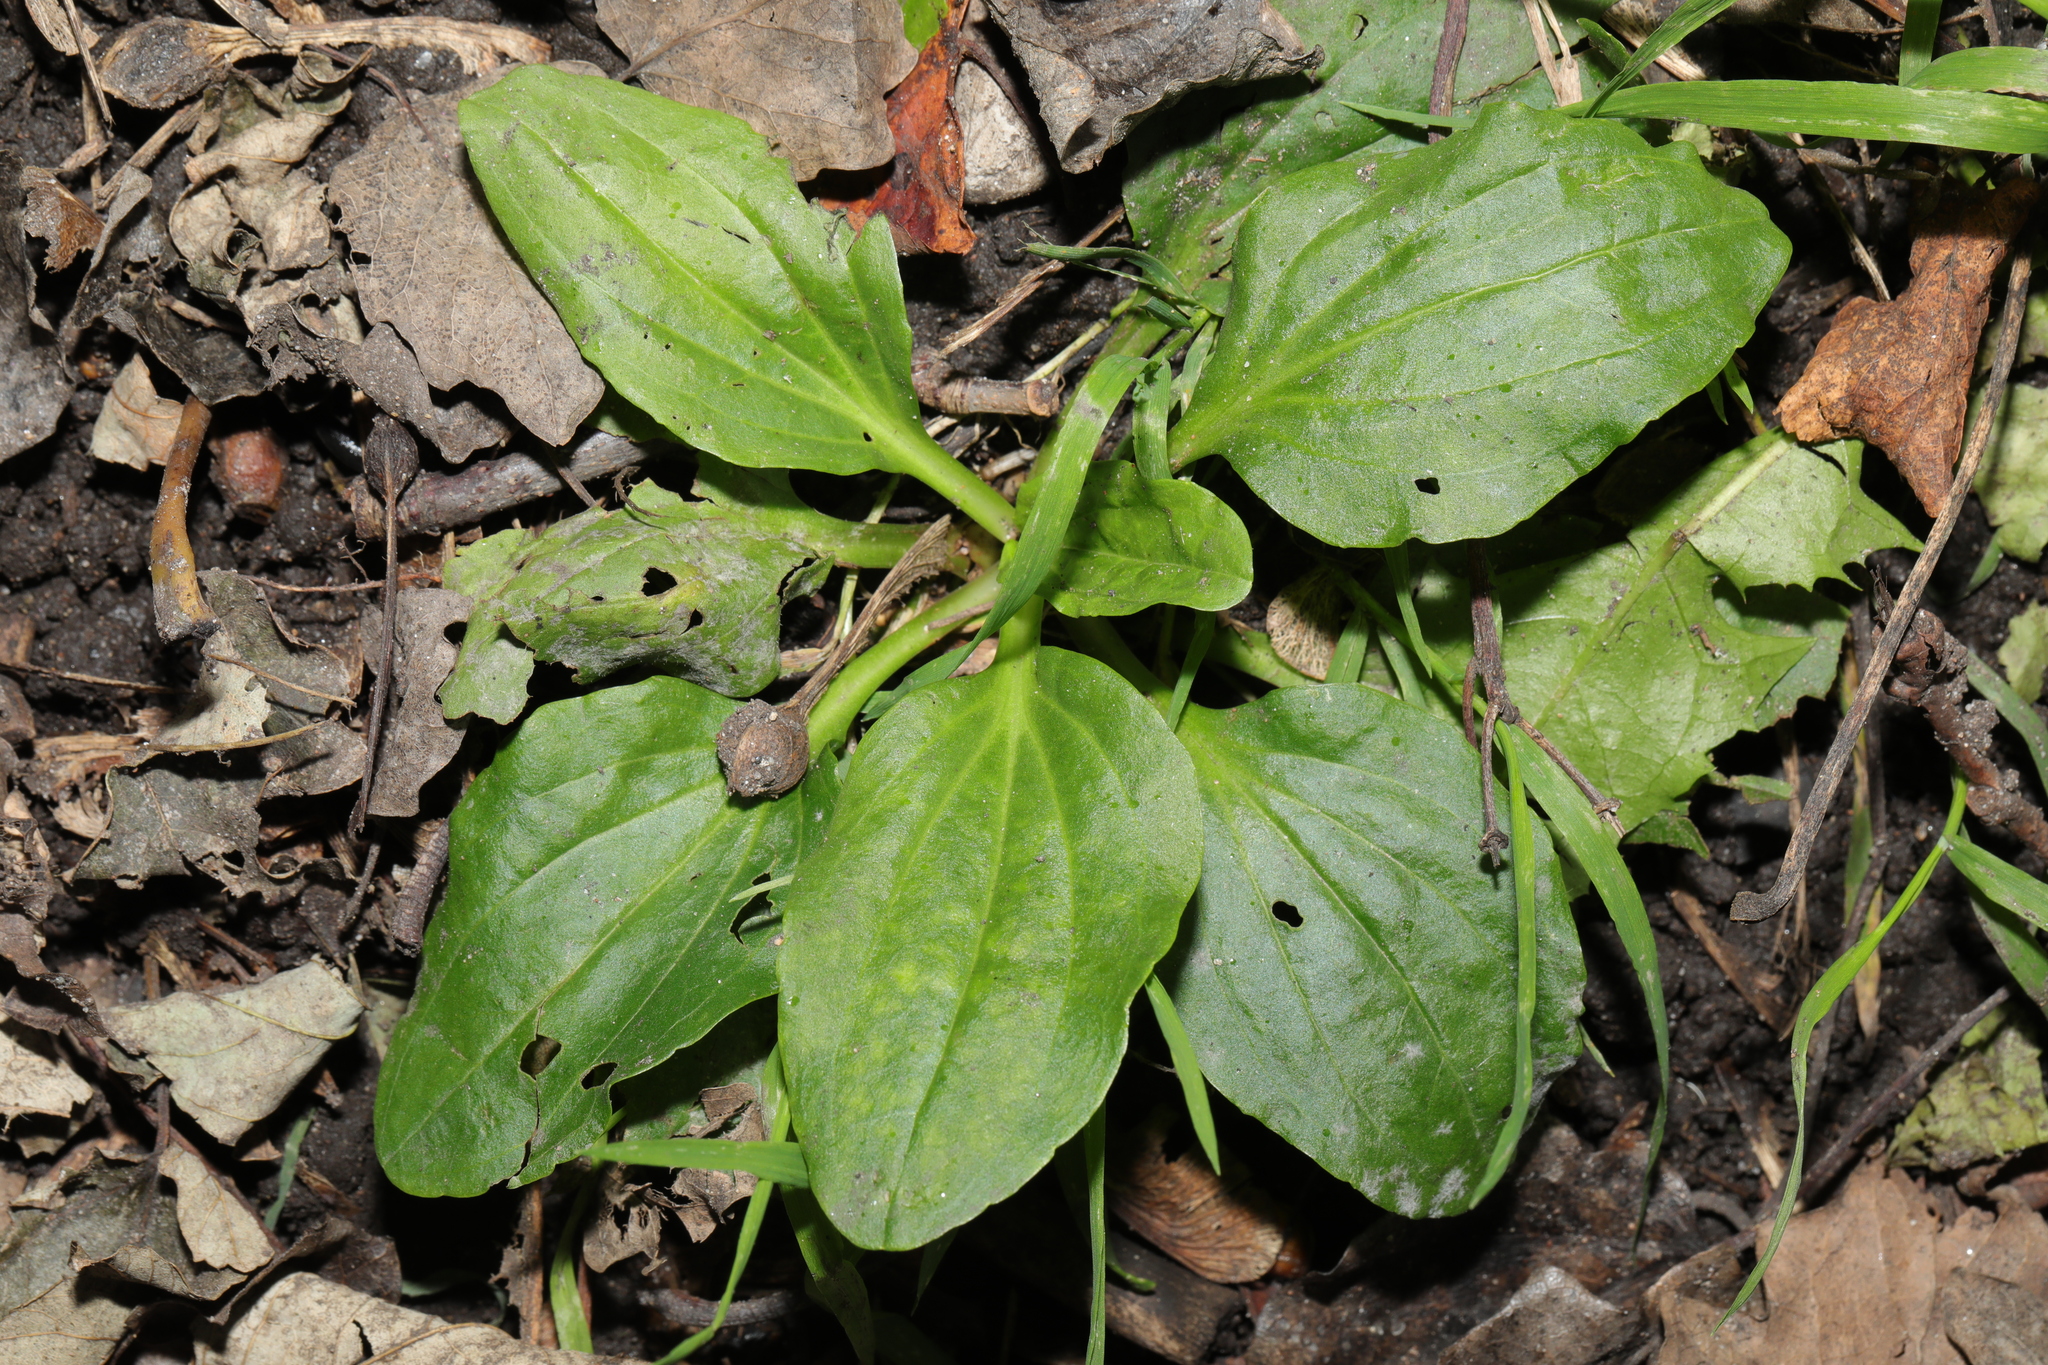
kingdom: Plantae
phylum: Tracheophyta
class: Magnoliopsida
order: Lamiales
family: Plantaginaceae
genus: Plantago
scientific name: Plantago major
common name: Common plantain
